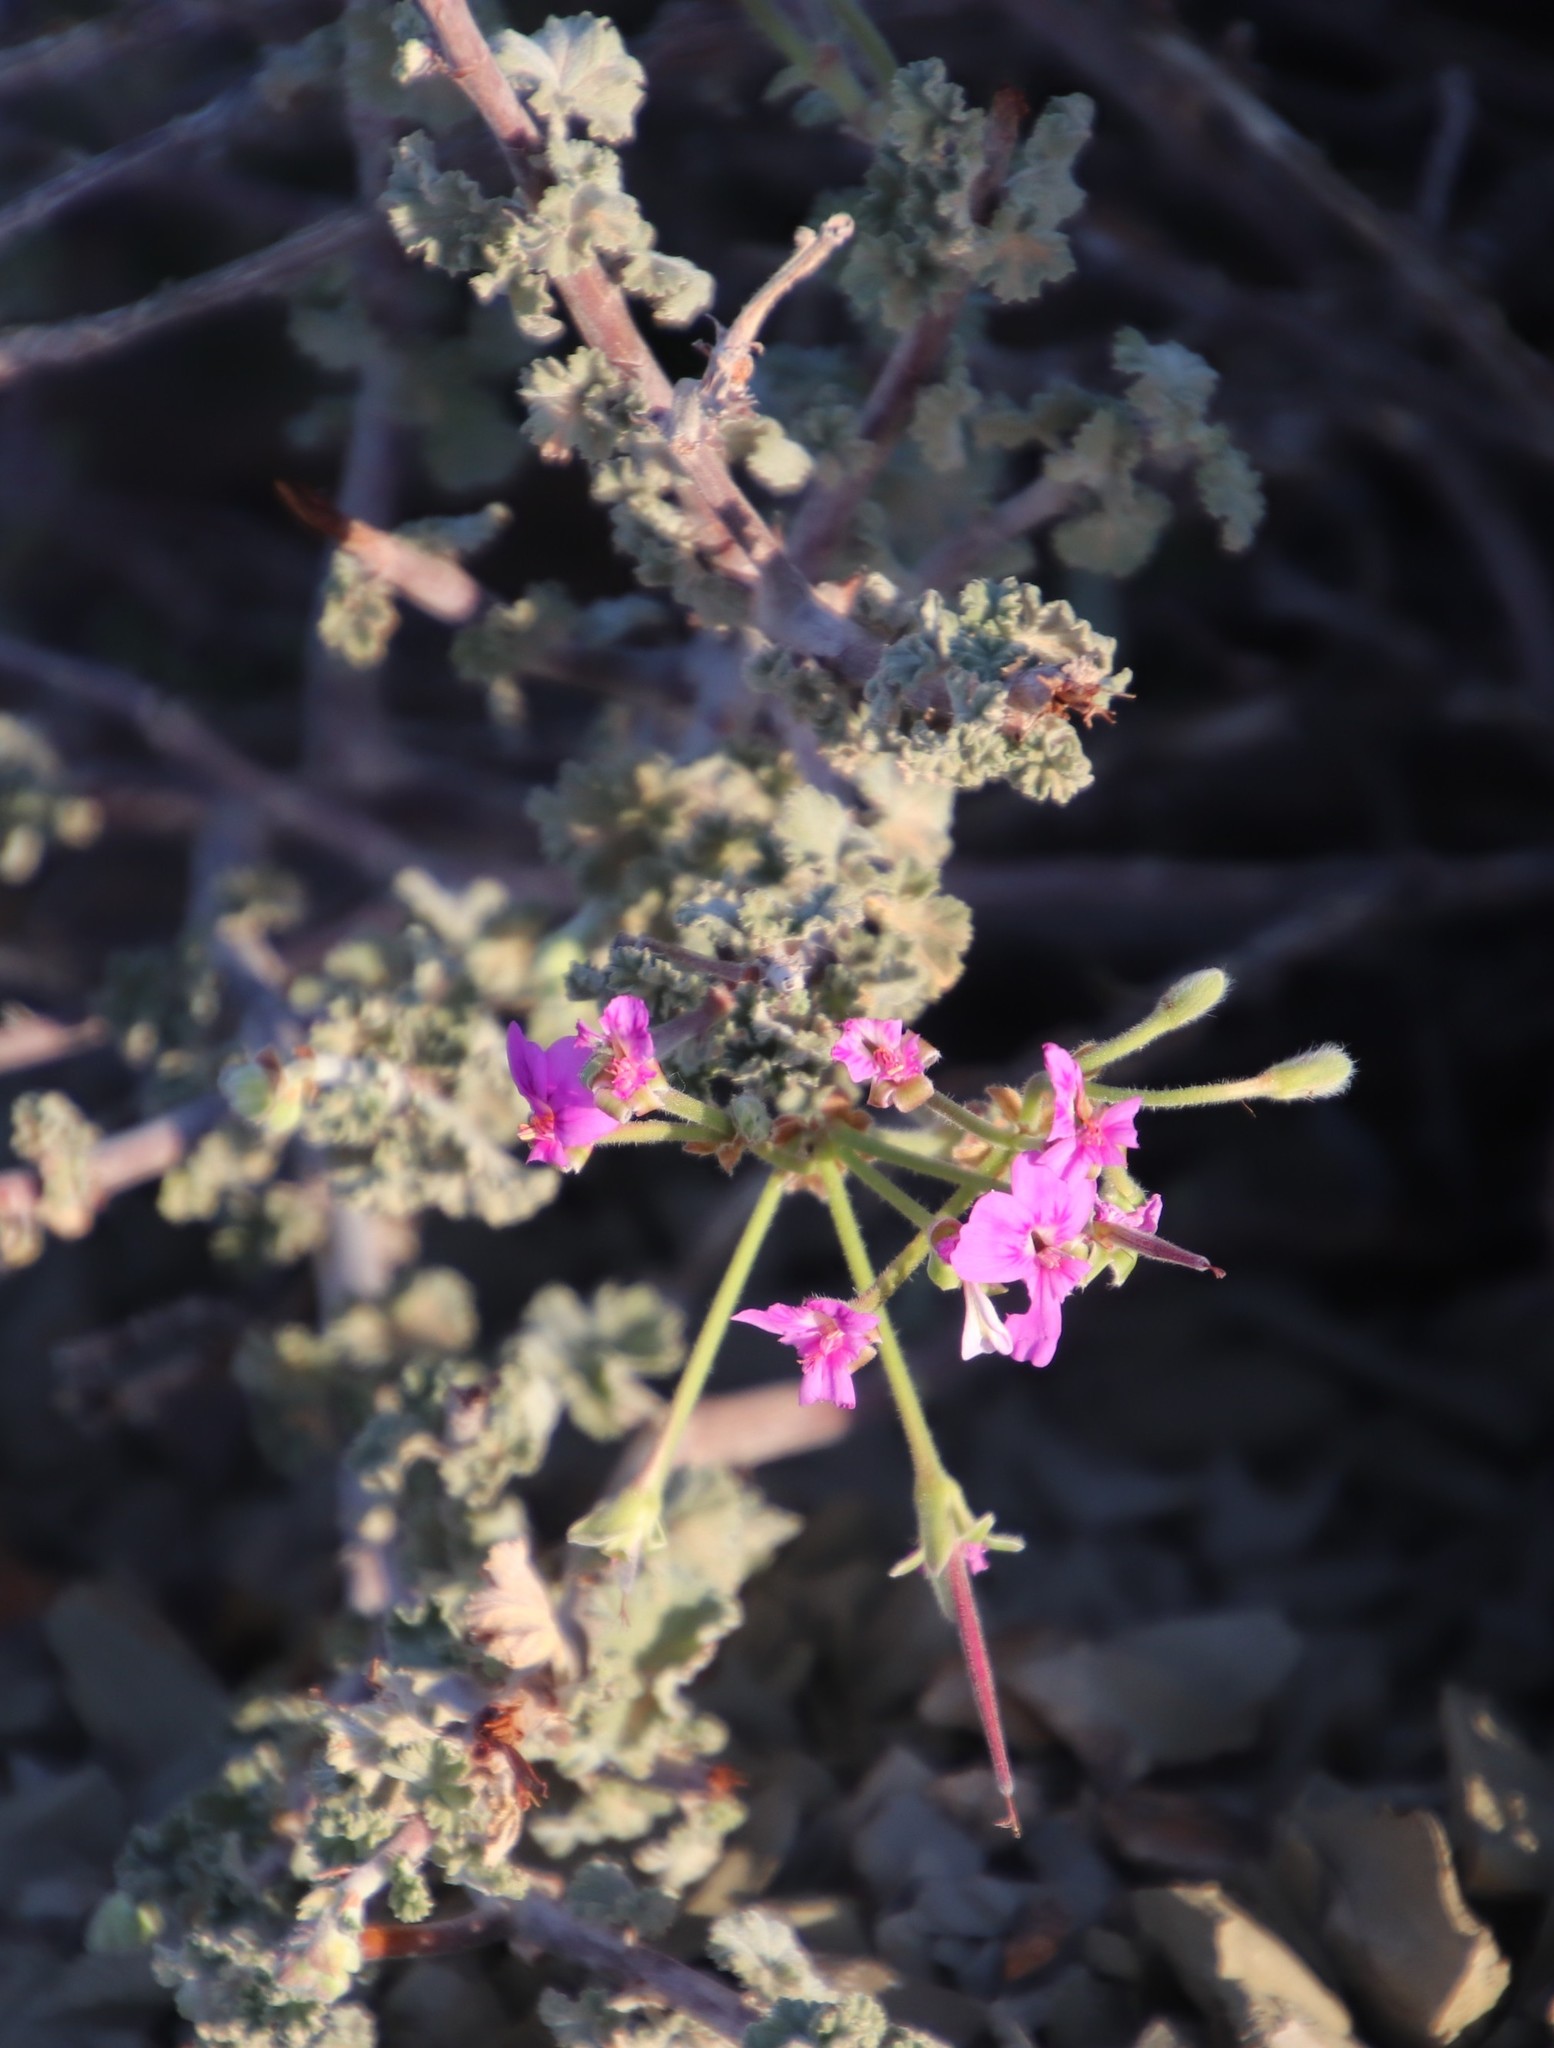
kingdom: Plantae
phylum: Tracheophyta
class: Magnoliopsida
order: Geraniales
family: Geraniaceae
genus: Pelargonium
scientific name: Pelargonium magenteum
